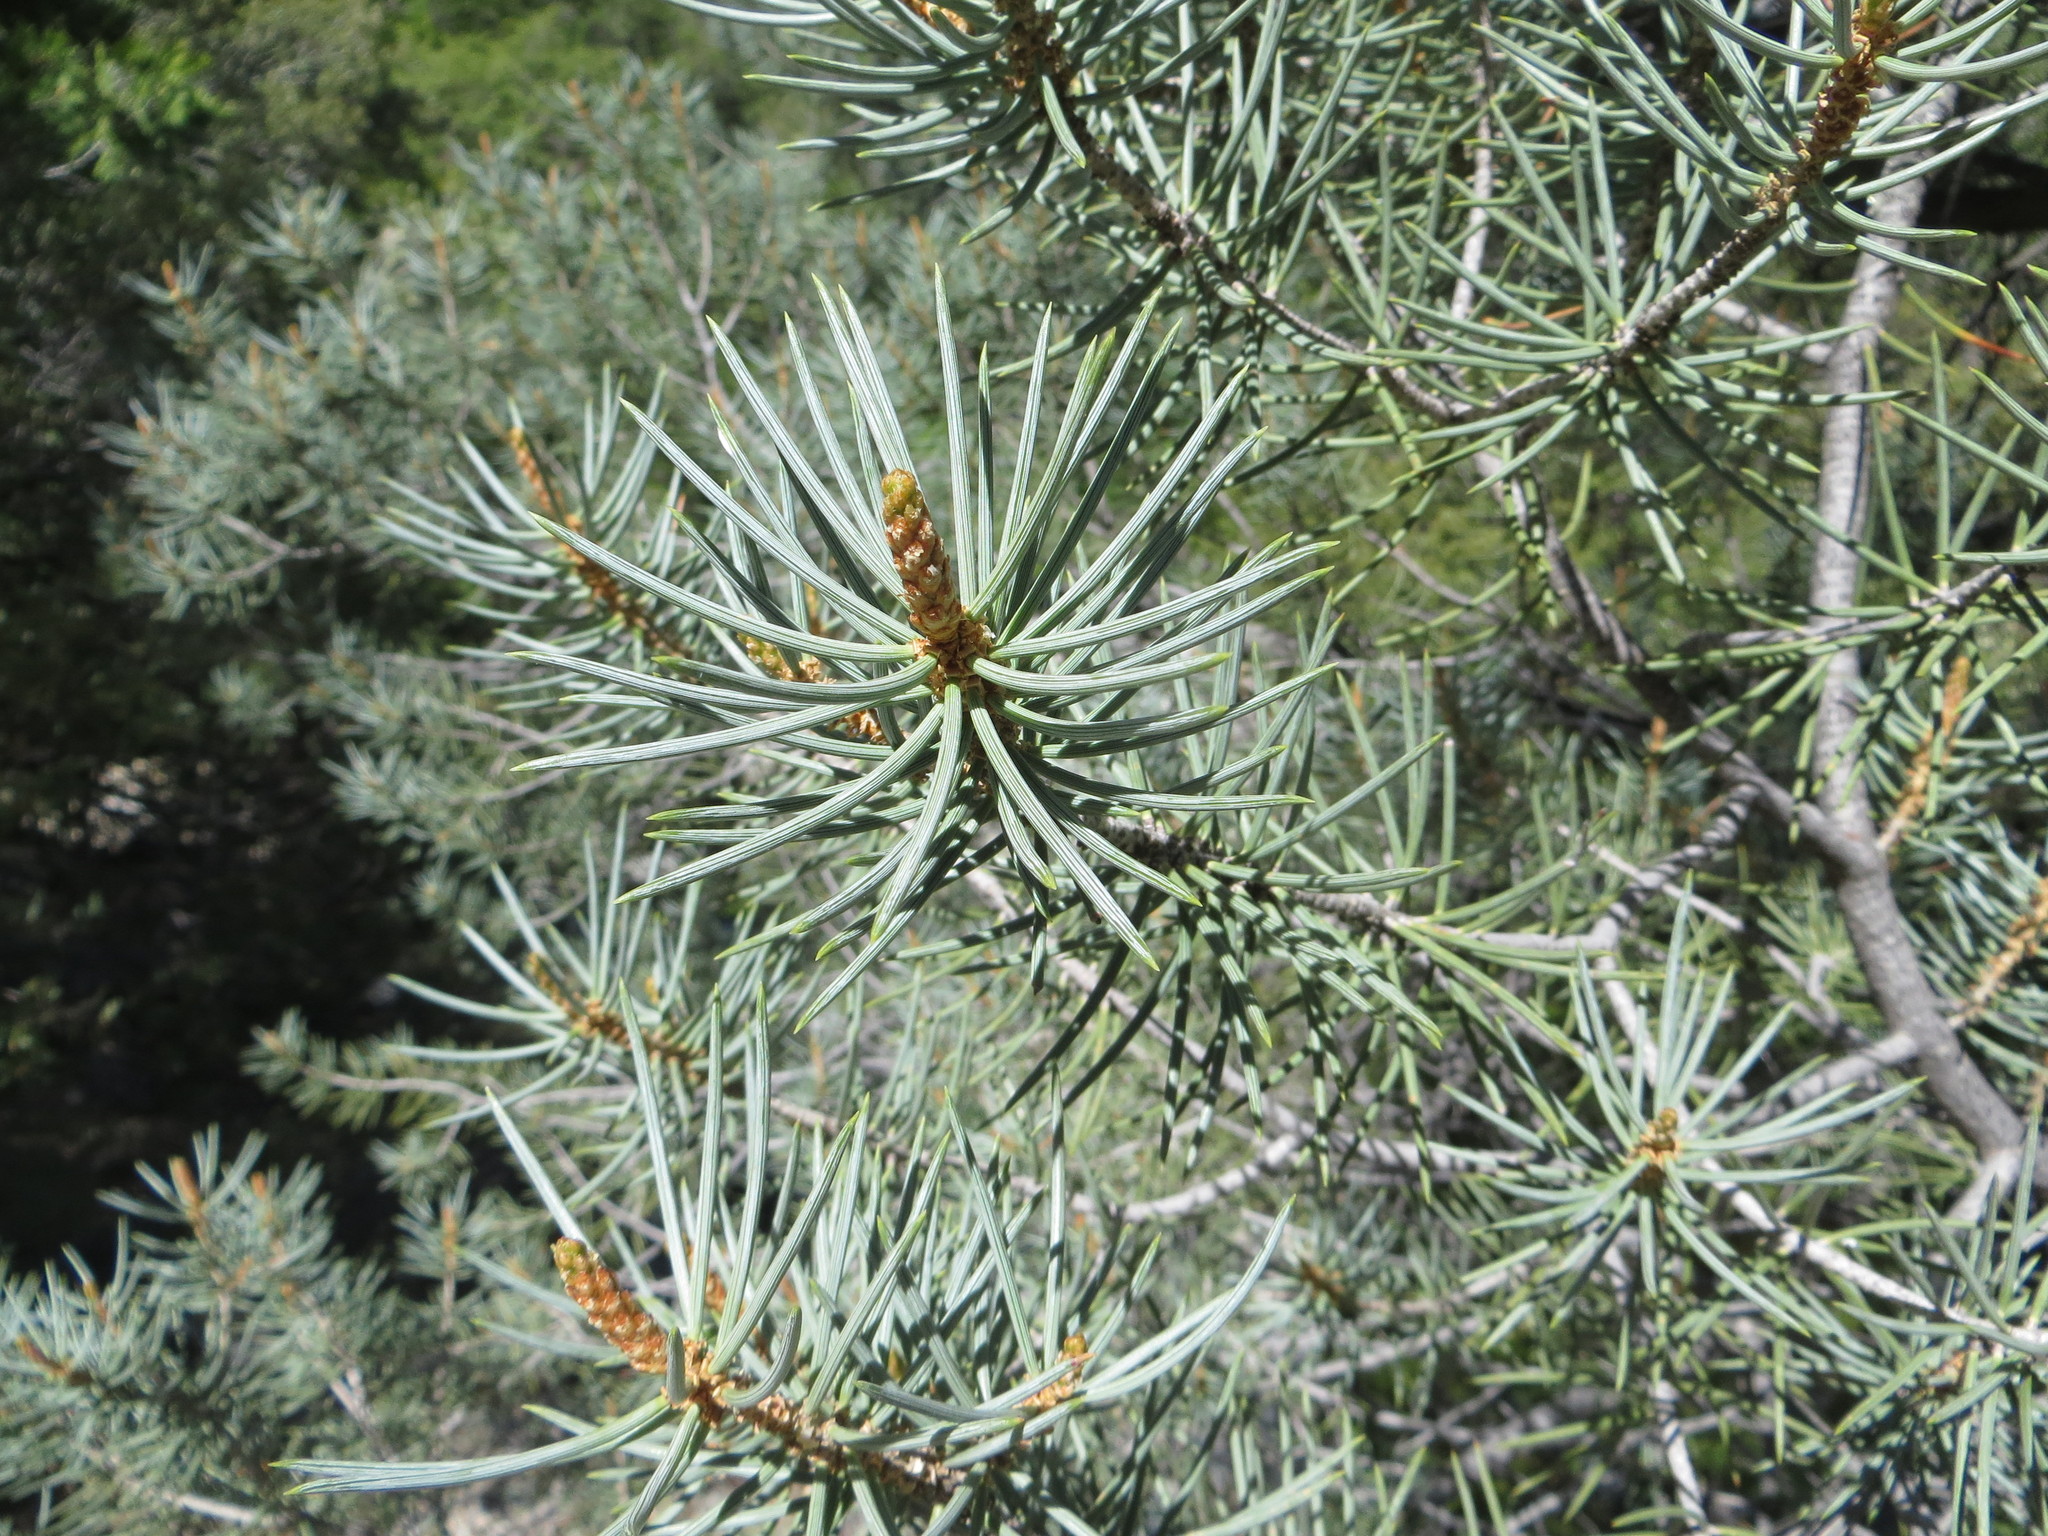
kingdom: Plantae
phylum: Tracheophyta
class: Pinopsida
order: Pinales
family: Pinaceae
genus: Pinus
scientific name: Pinus monophylla
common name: One-leaved nut pine
